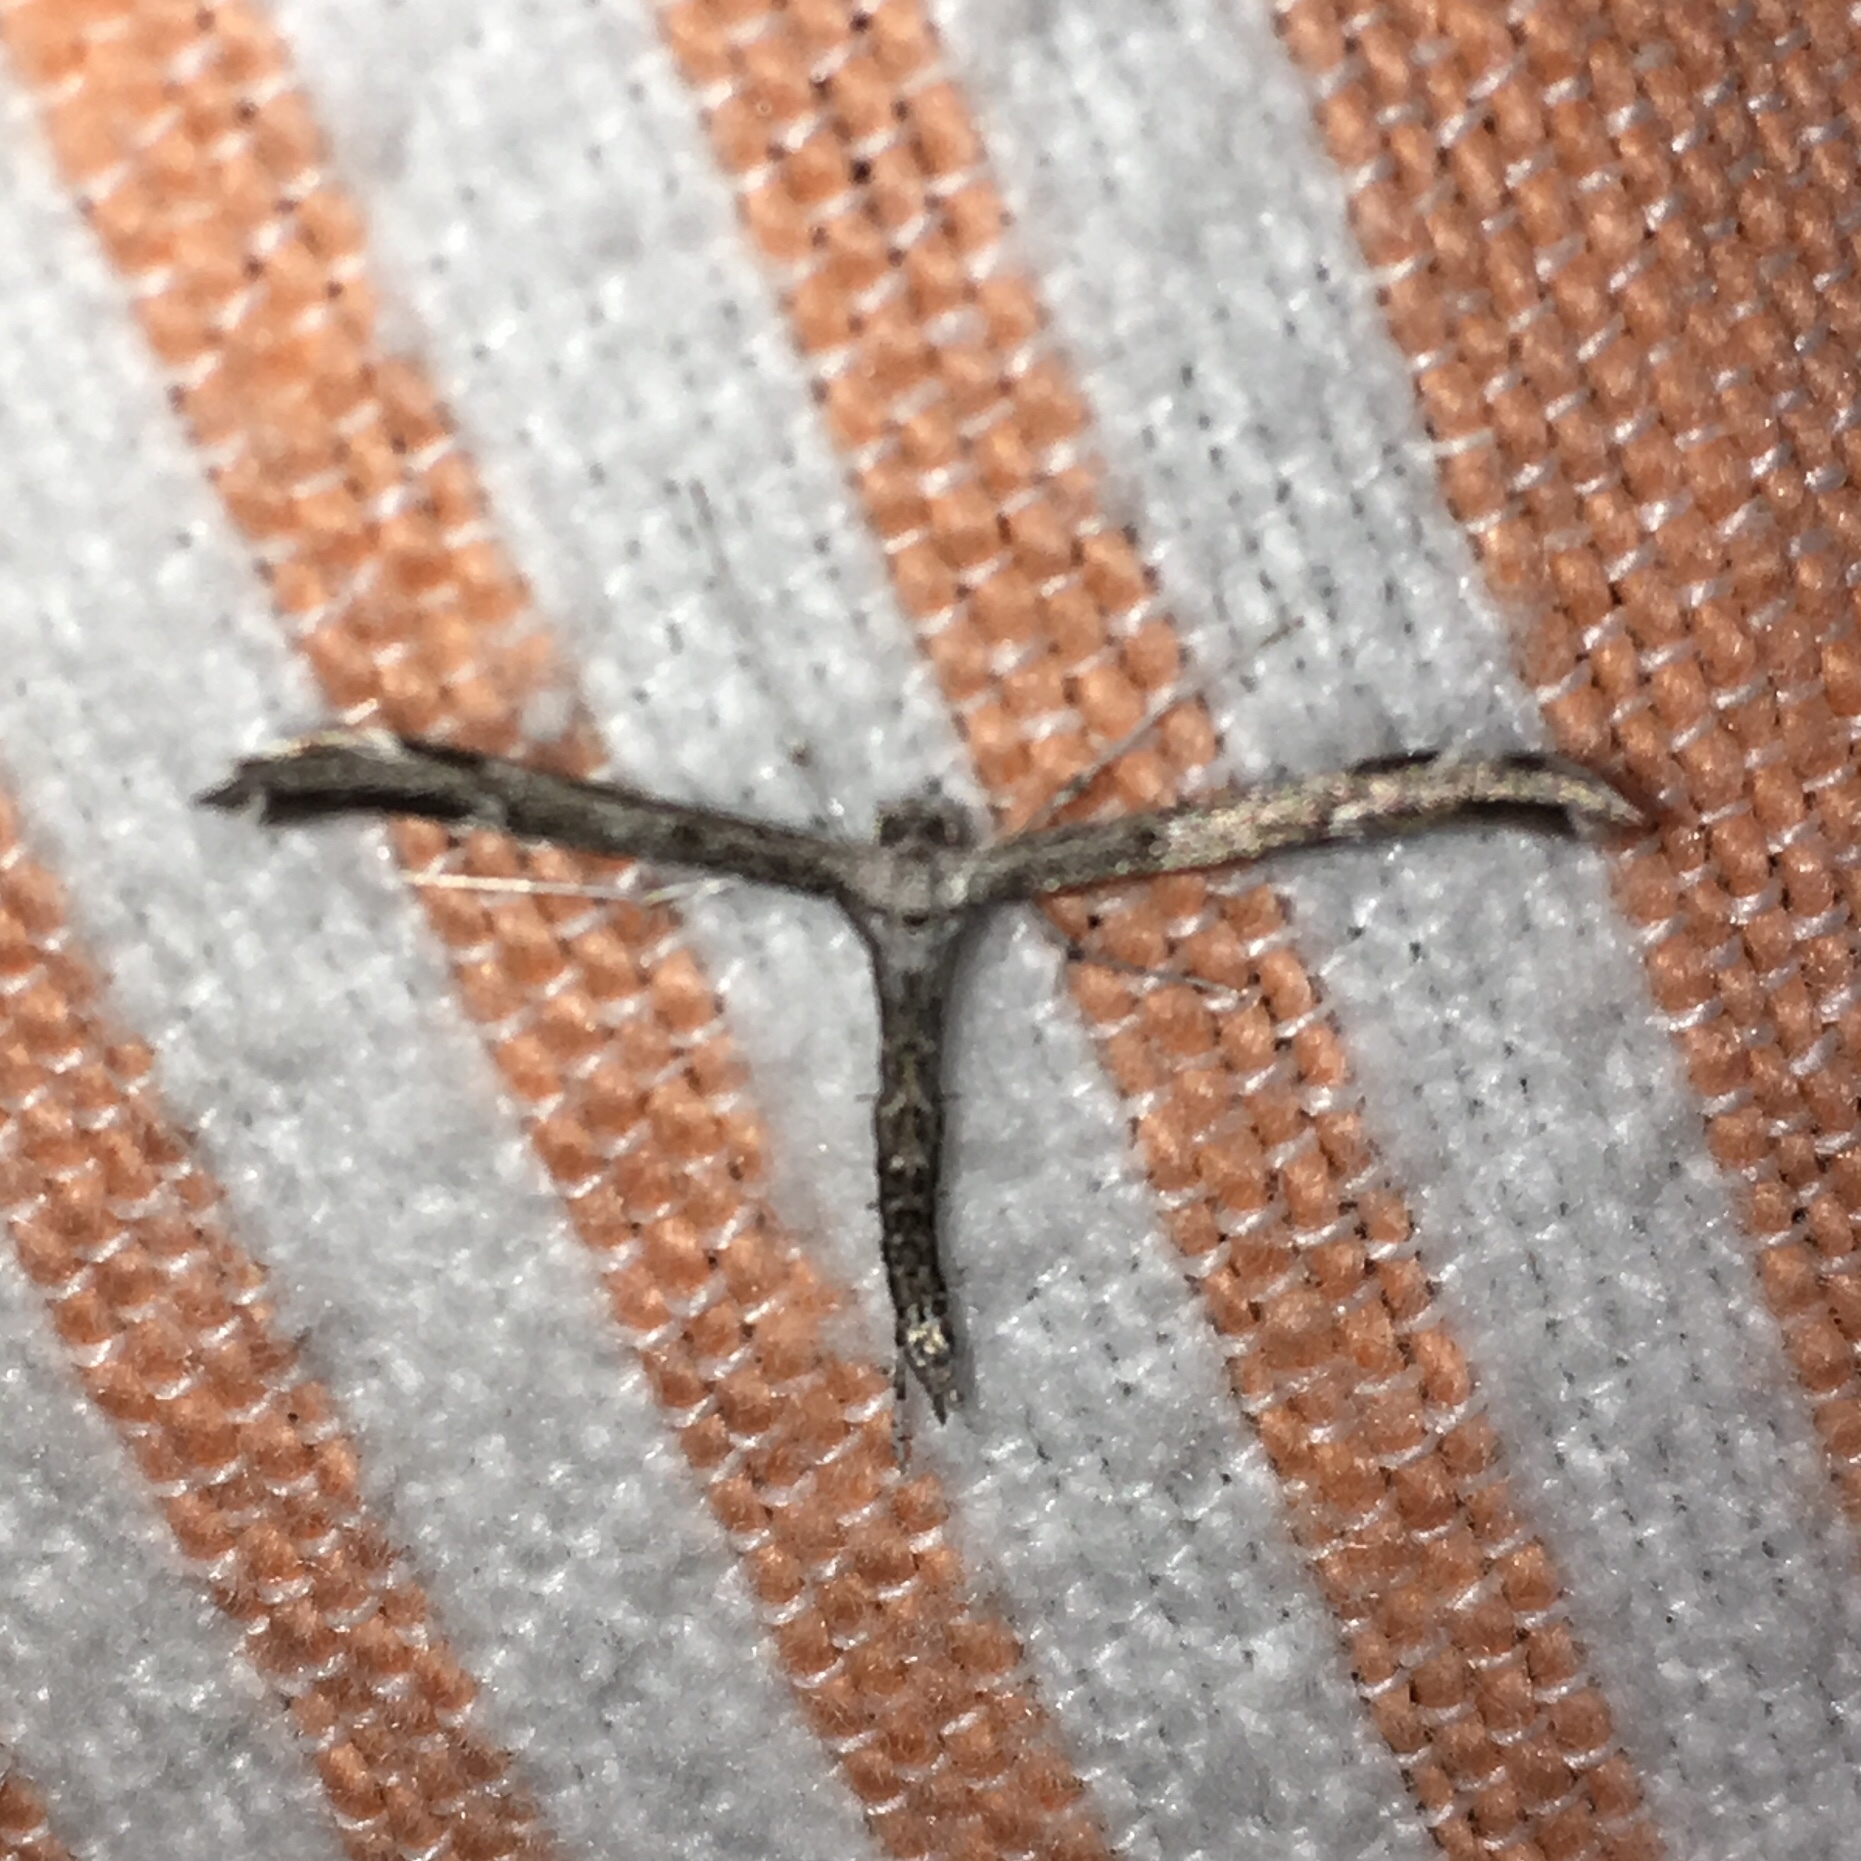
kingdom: Animalia
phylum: Arthropoda
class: Insecta
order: Lepidoptera
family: Pterophoridae
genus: Hellinsia
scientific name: Hellinsia inquinatus
